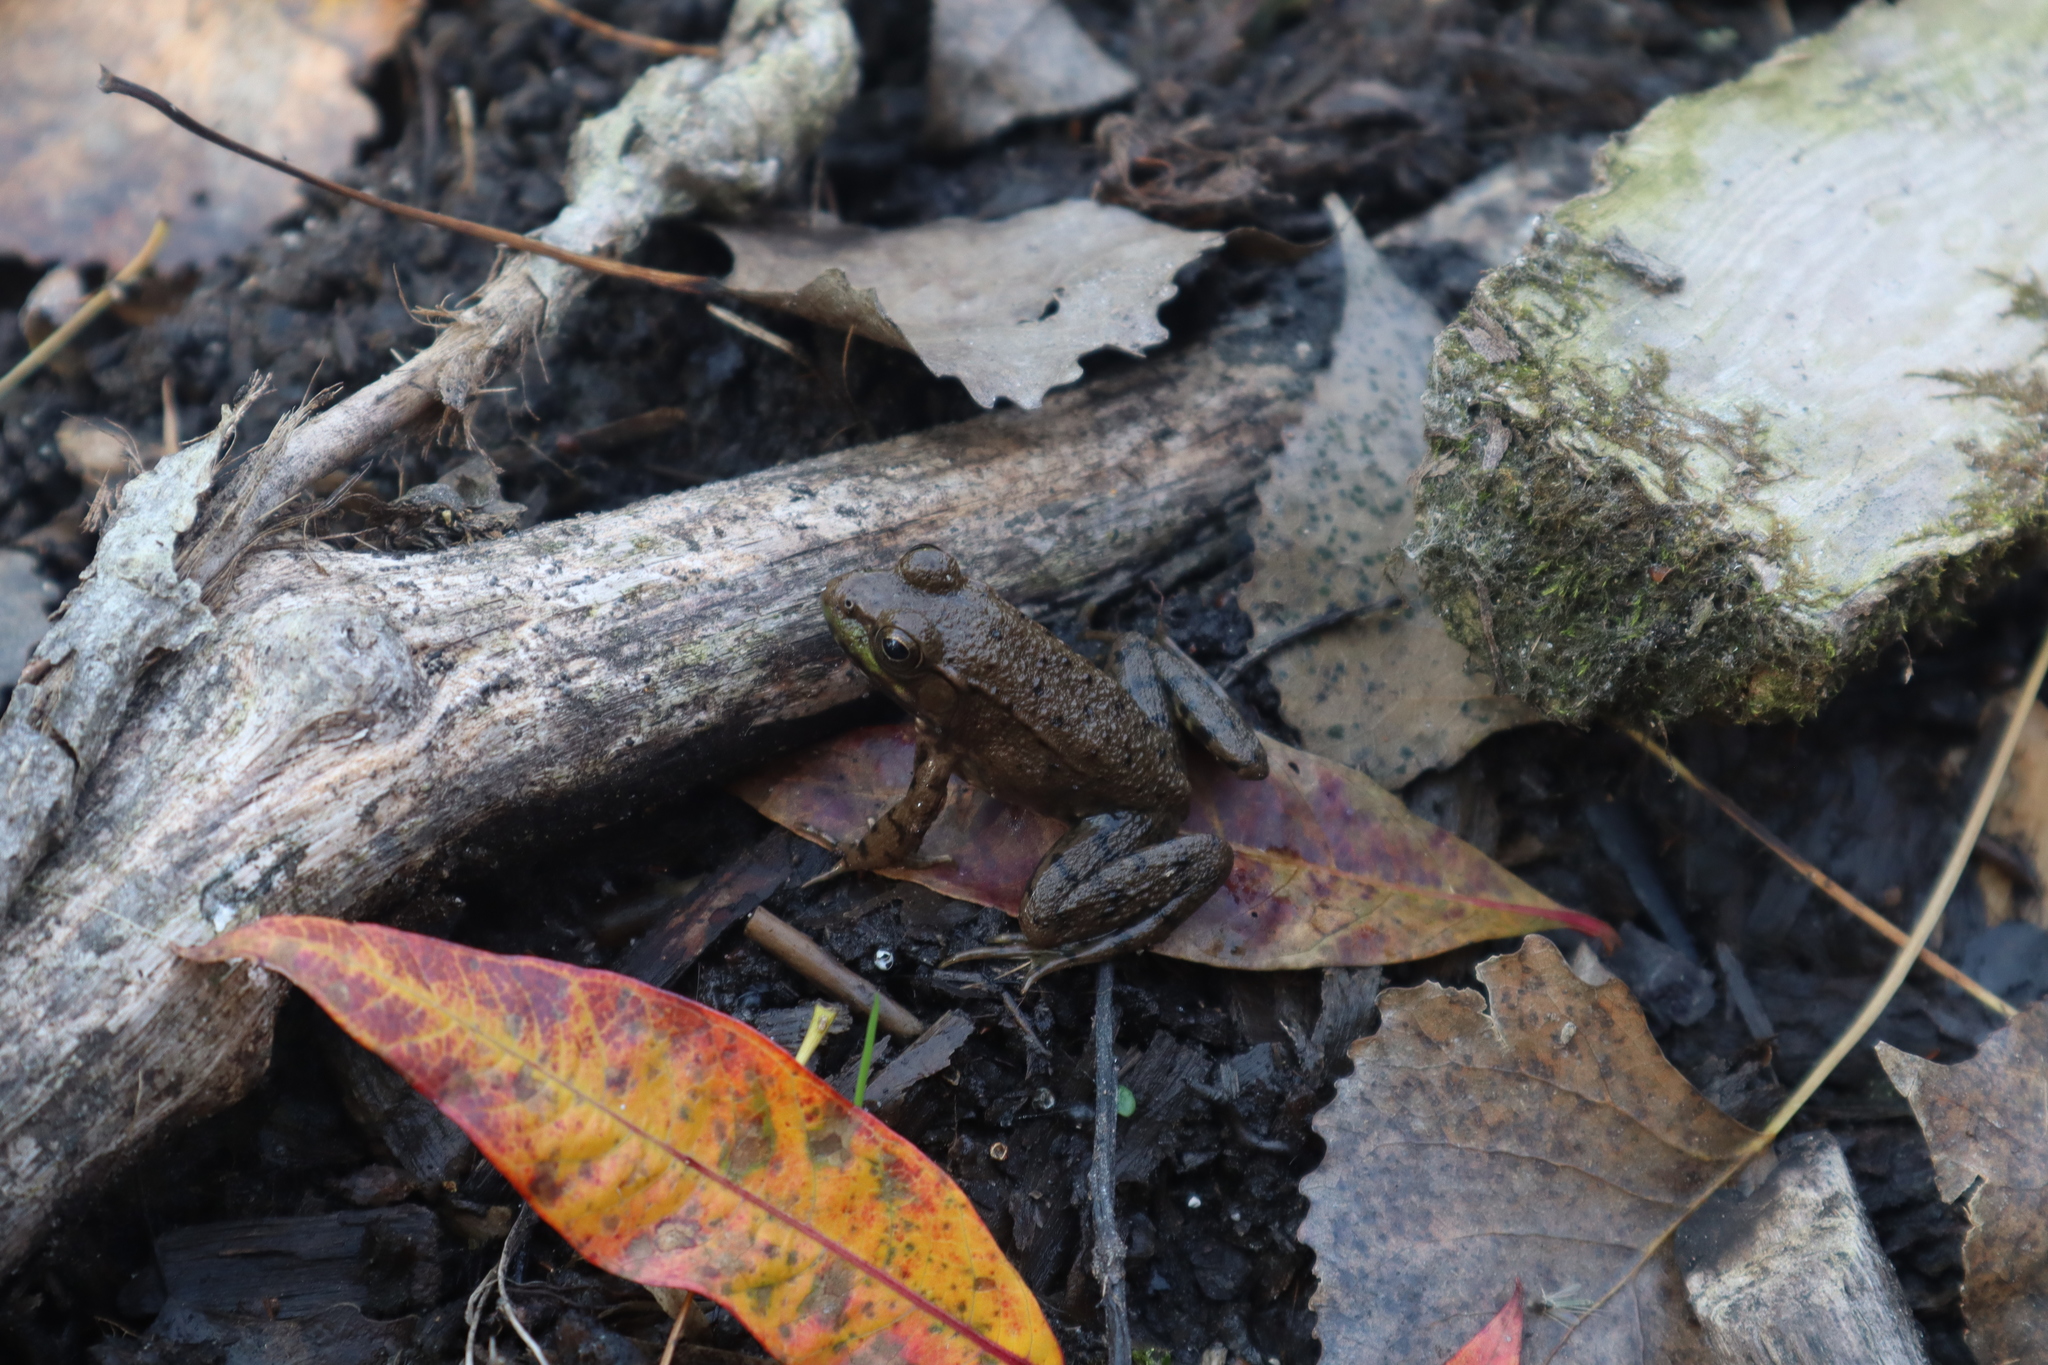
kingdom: Animalia
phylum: Chordata
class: Amphibia
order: Anura
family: Ranidae
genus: Lithobates
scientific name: Lithobates clamitans
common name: Green frog
